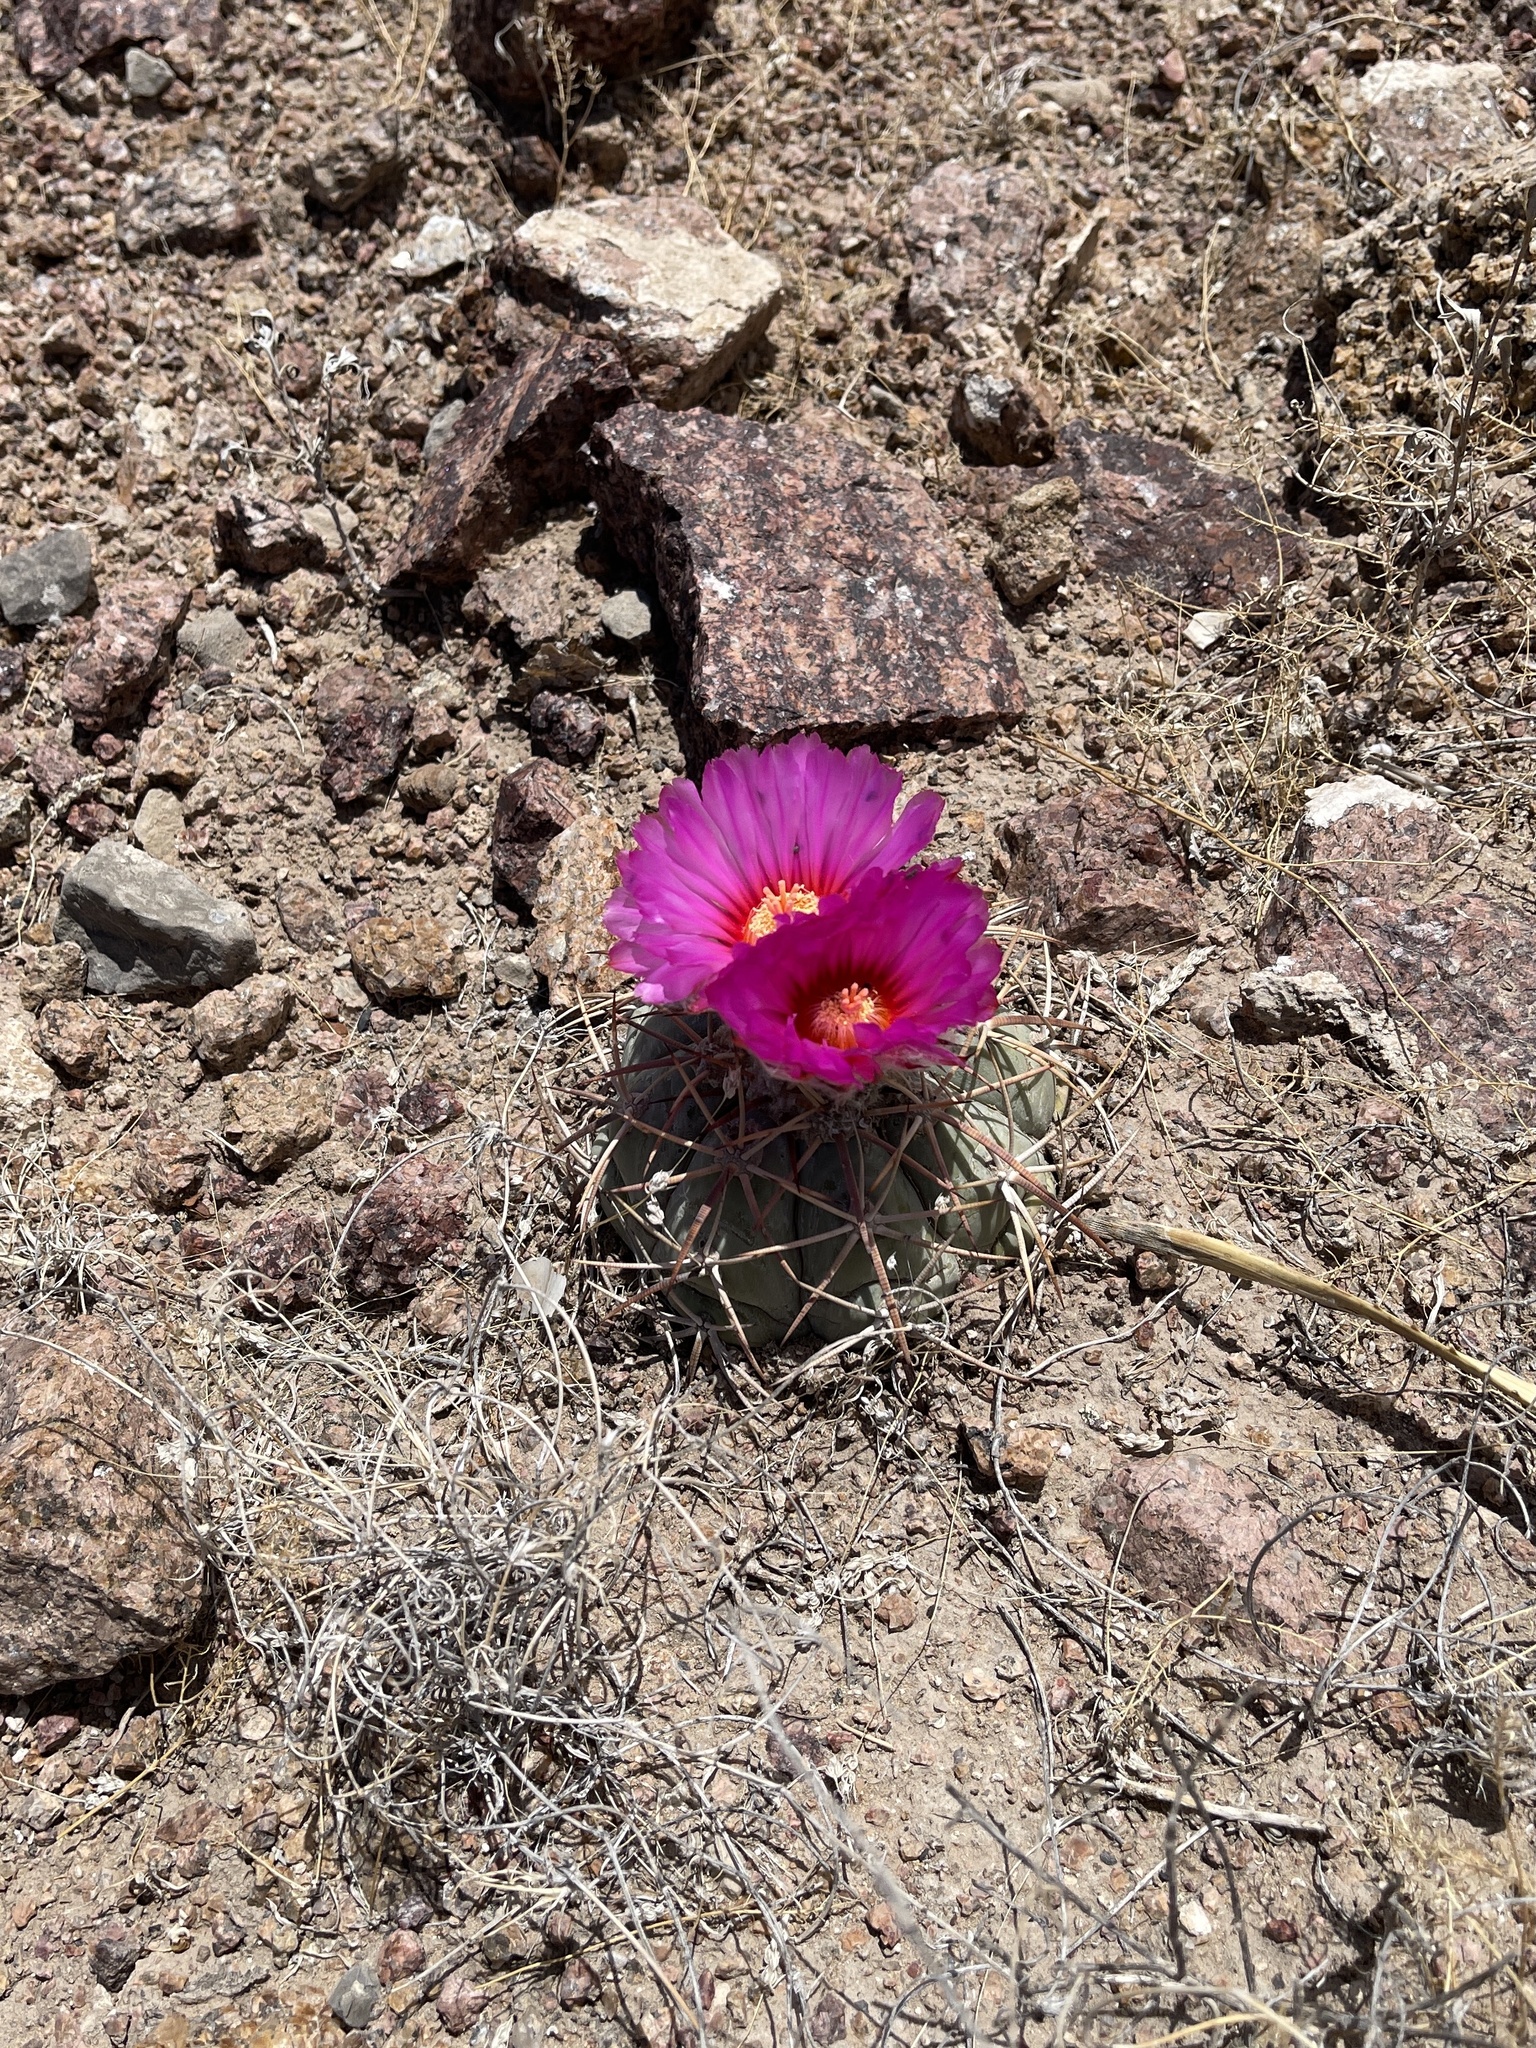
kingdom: Plantae
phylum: Tracheophyta
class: Magnoliopsida
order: Caryophyllales
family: Cactaceae
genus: Echinocactus
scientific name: Echinocactus horizonthalonius
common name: Devilshead
